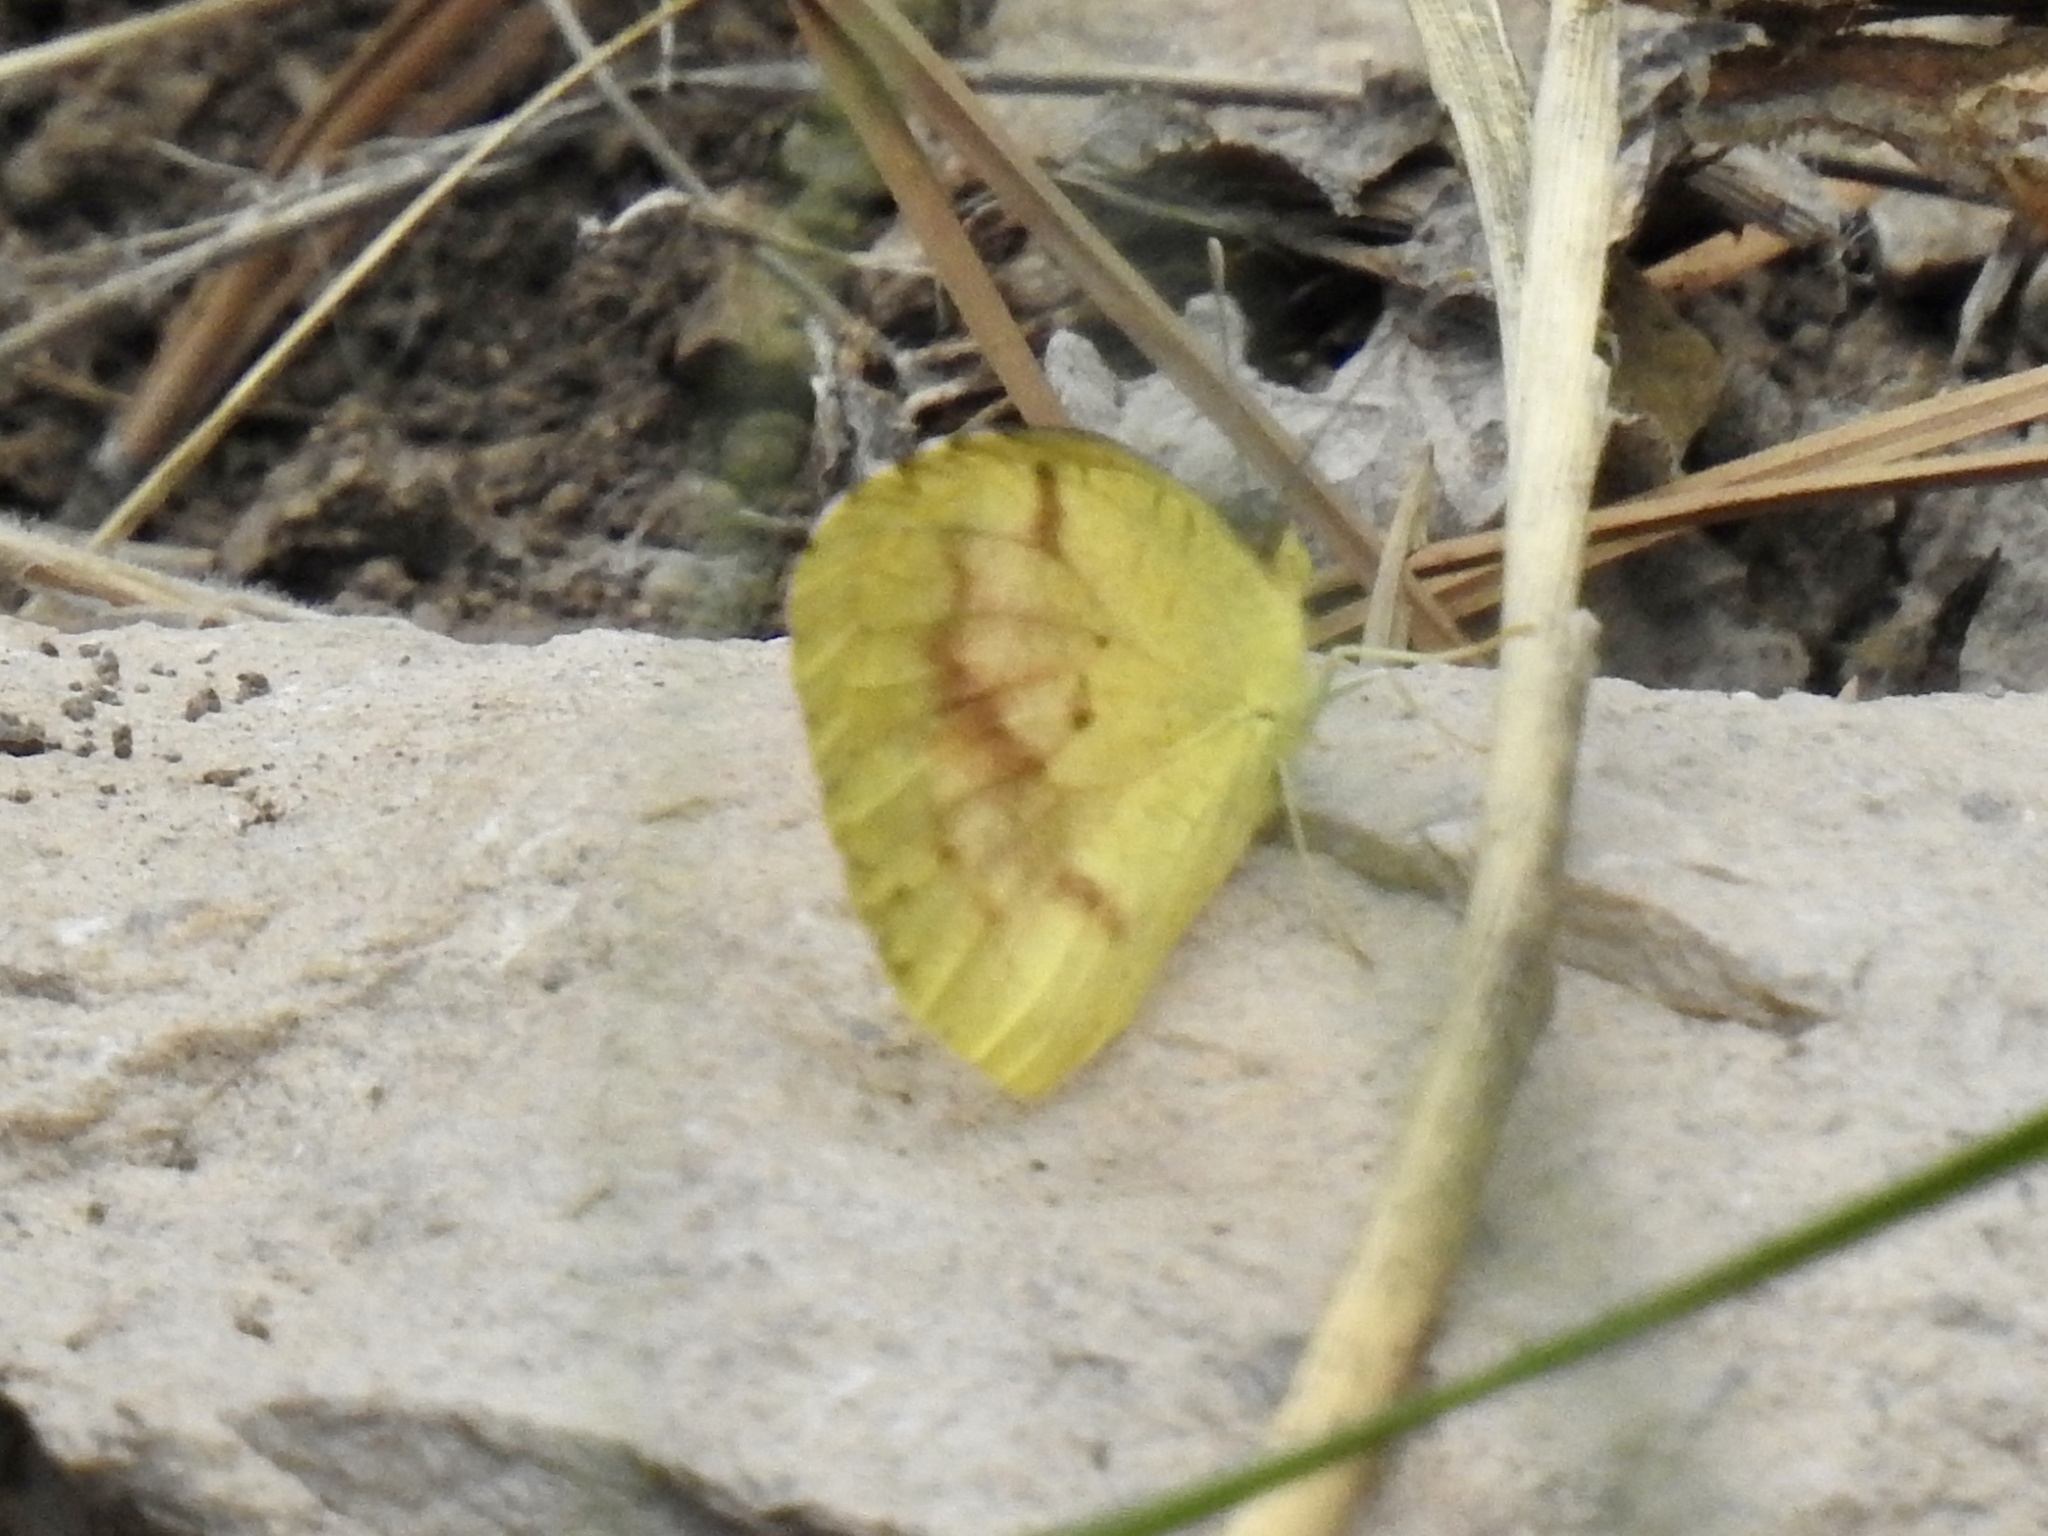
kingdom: Animalia
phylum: Arthropoda
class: Insecta
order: Lepidoptera
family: Pieridae
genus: Abaeis
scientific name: Abaeis nicippe
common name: Sleepy orange
